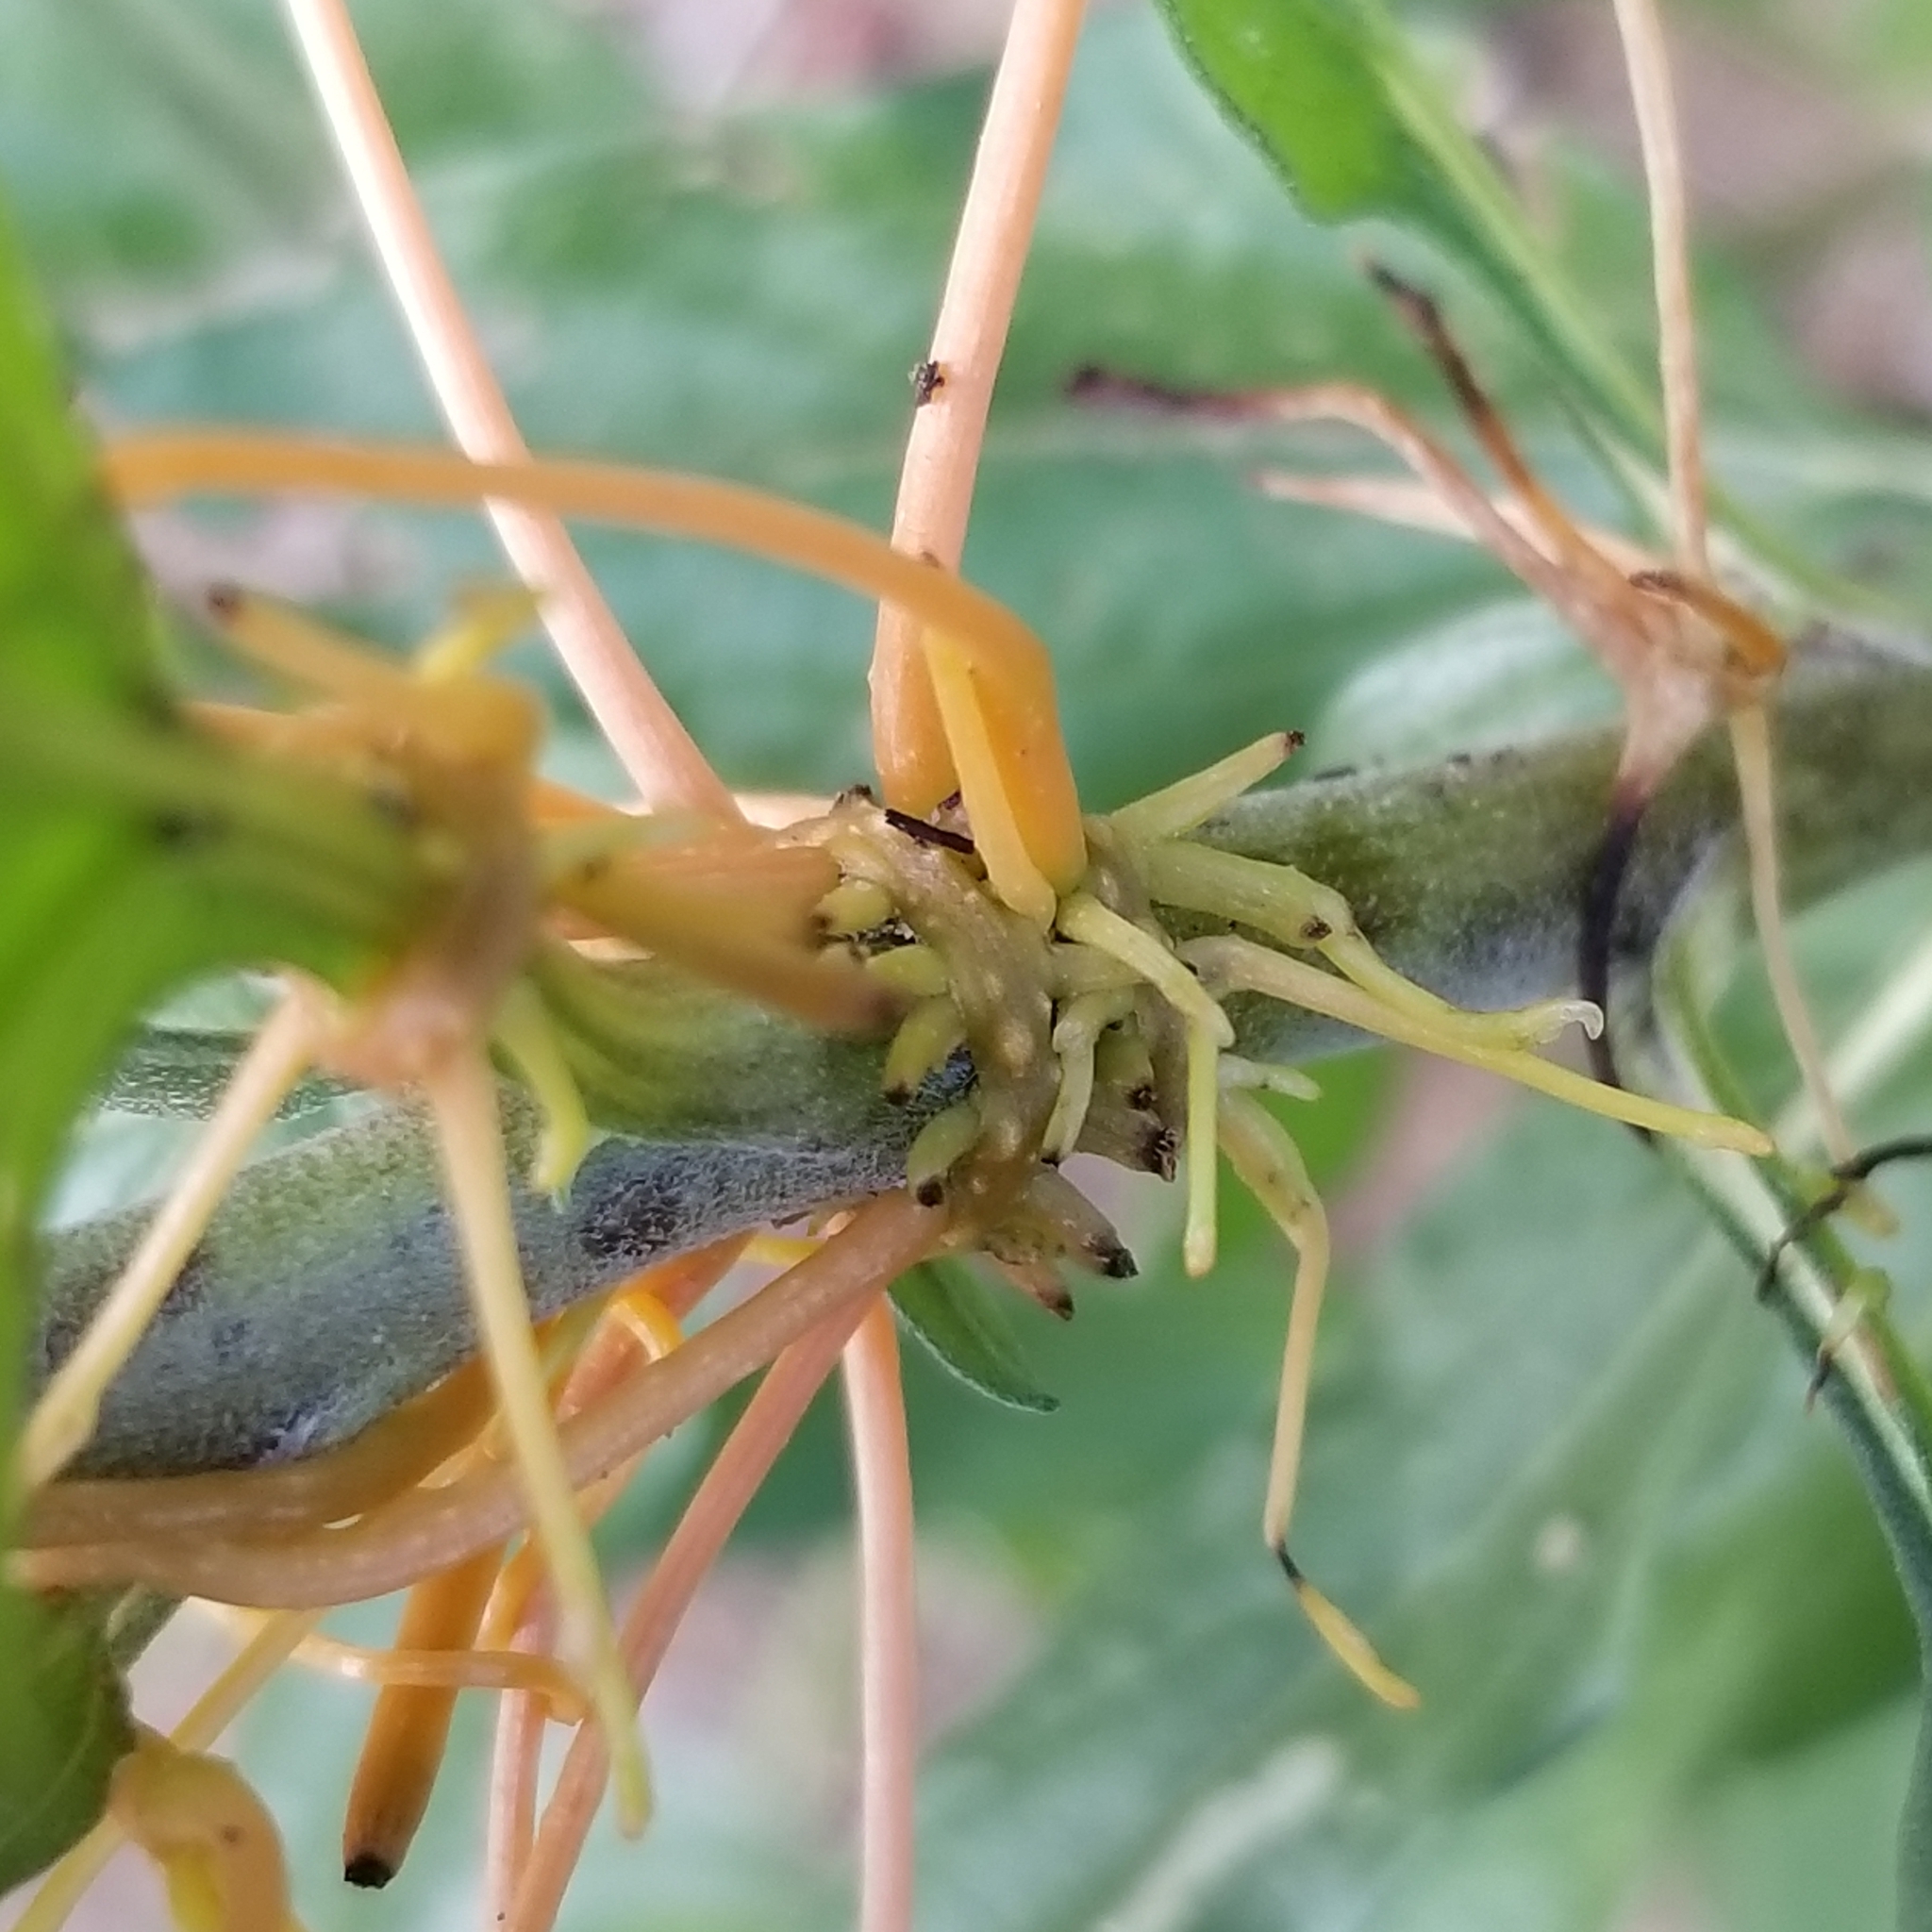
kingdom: Plantae
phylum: Tracheophyta
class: Magnoliopsida
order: Solanales
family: Convolvulaceae
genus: Cuscuta
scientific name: Cuscuta subinclusa
